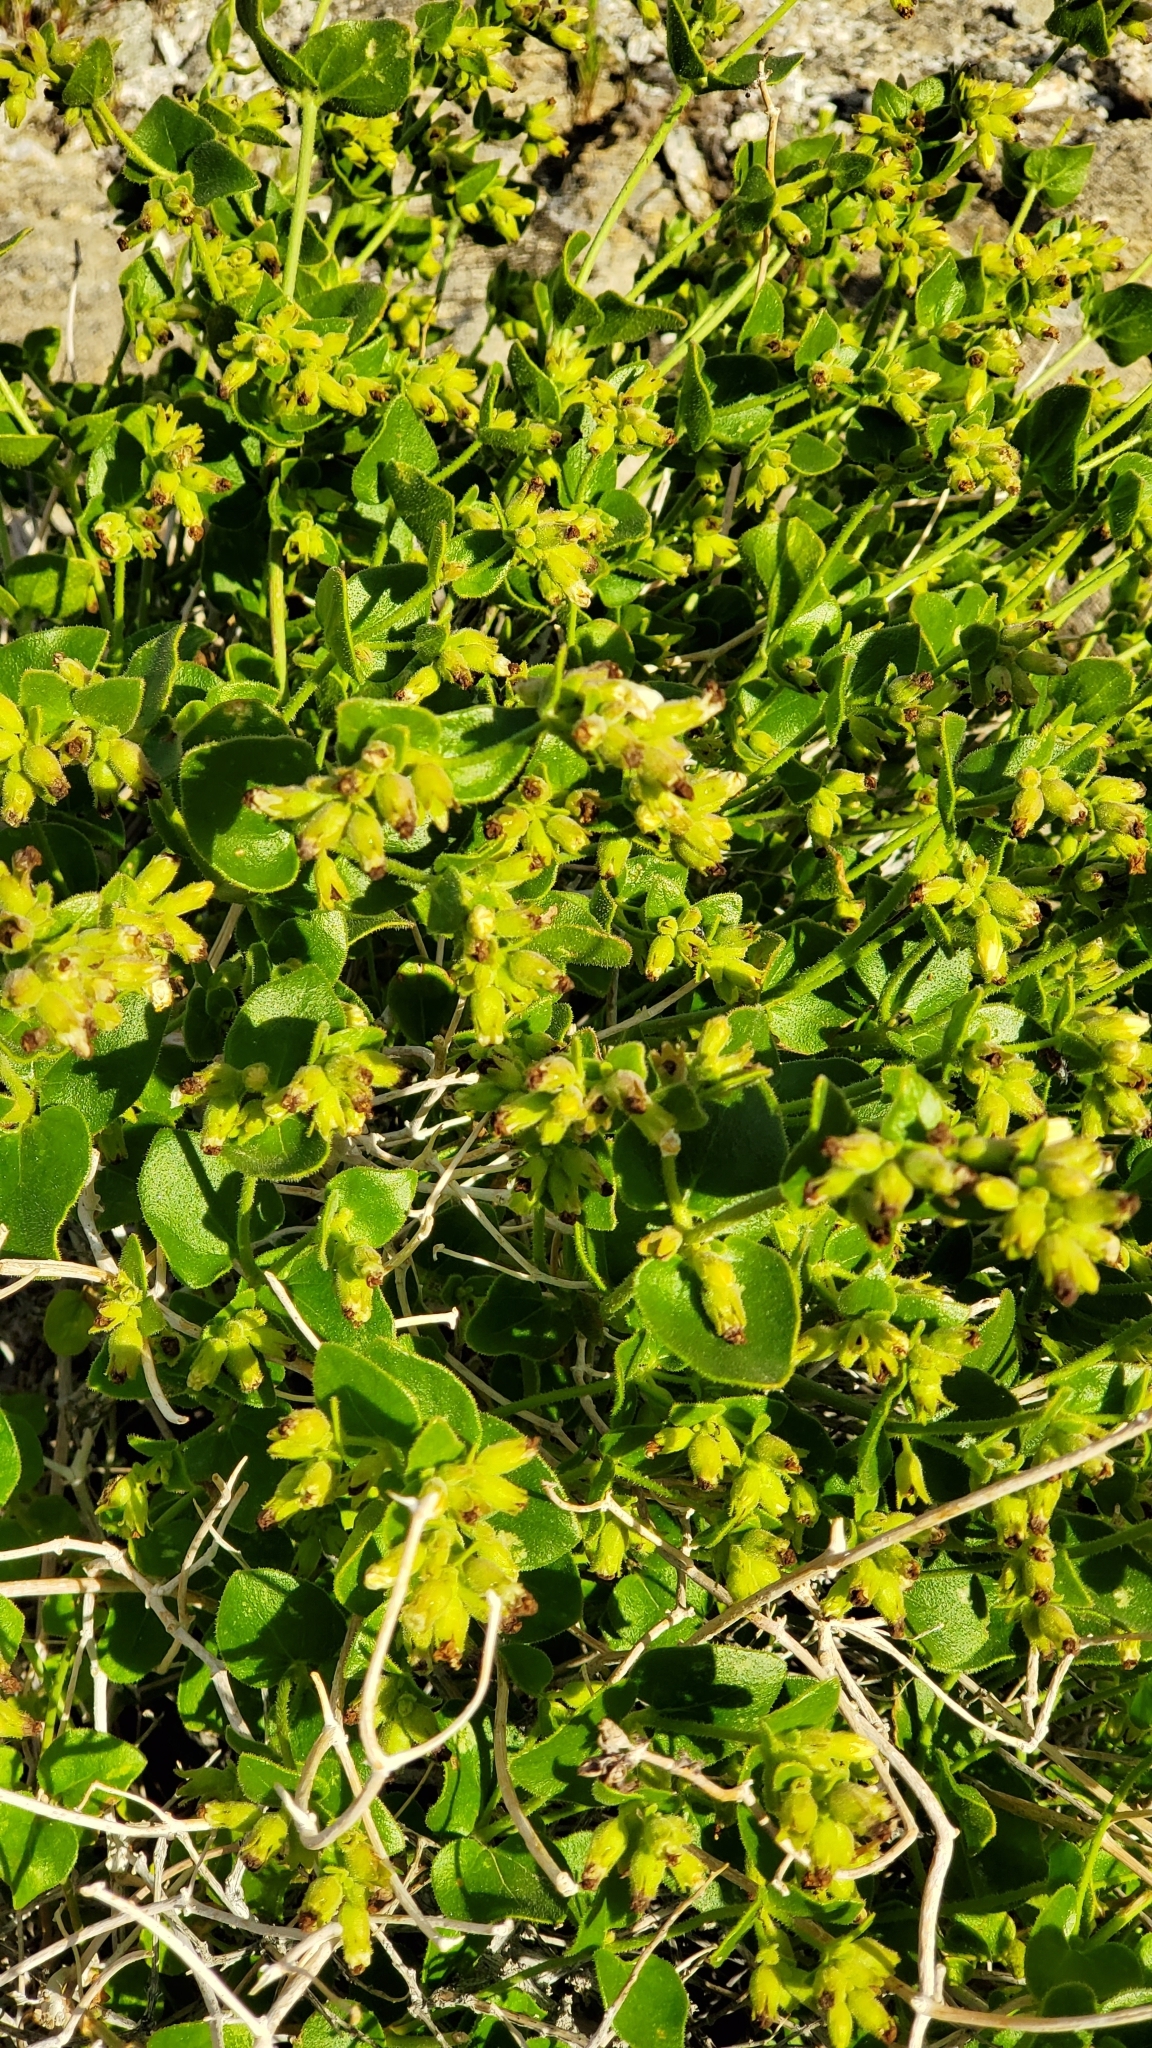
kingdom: Plantae
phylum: Tracheophyta
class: Magnoliopsida
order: Caryophyllales
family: Nyctaginaceae
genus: Mirabilis
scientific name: Mirabilis laevis
